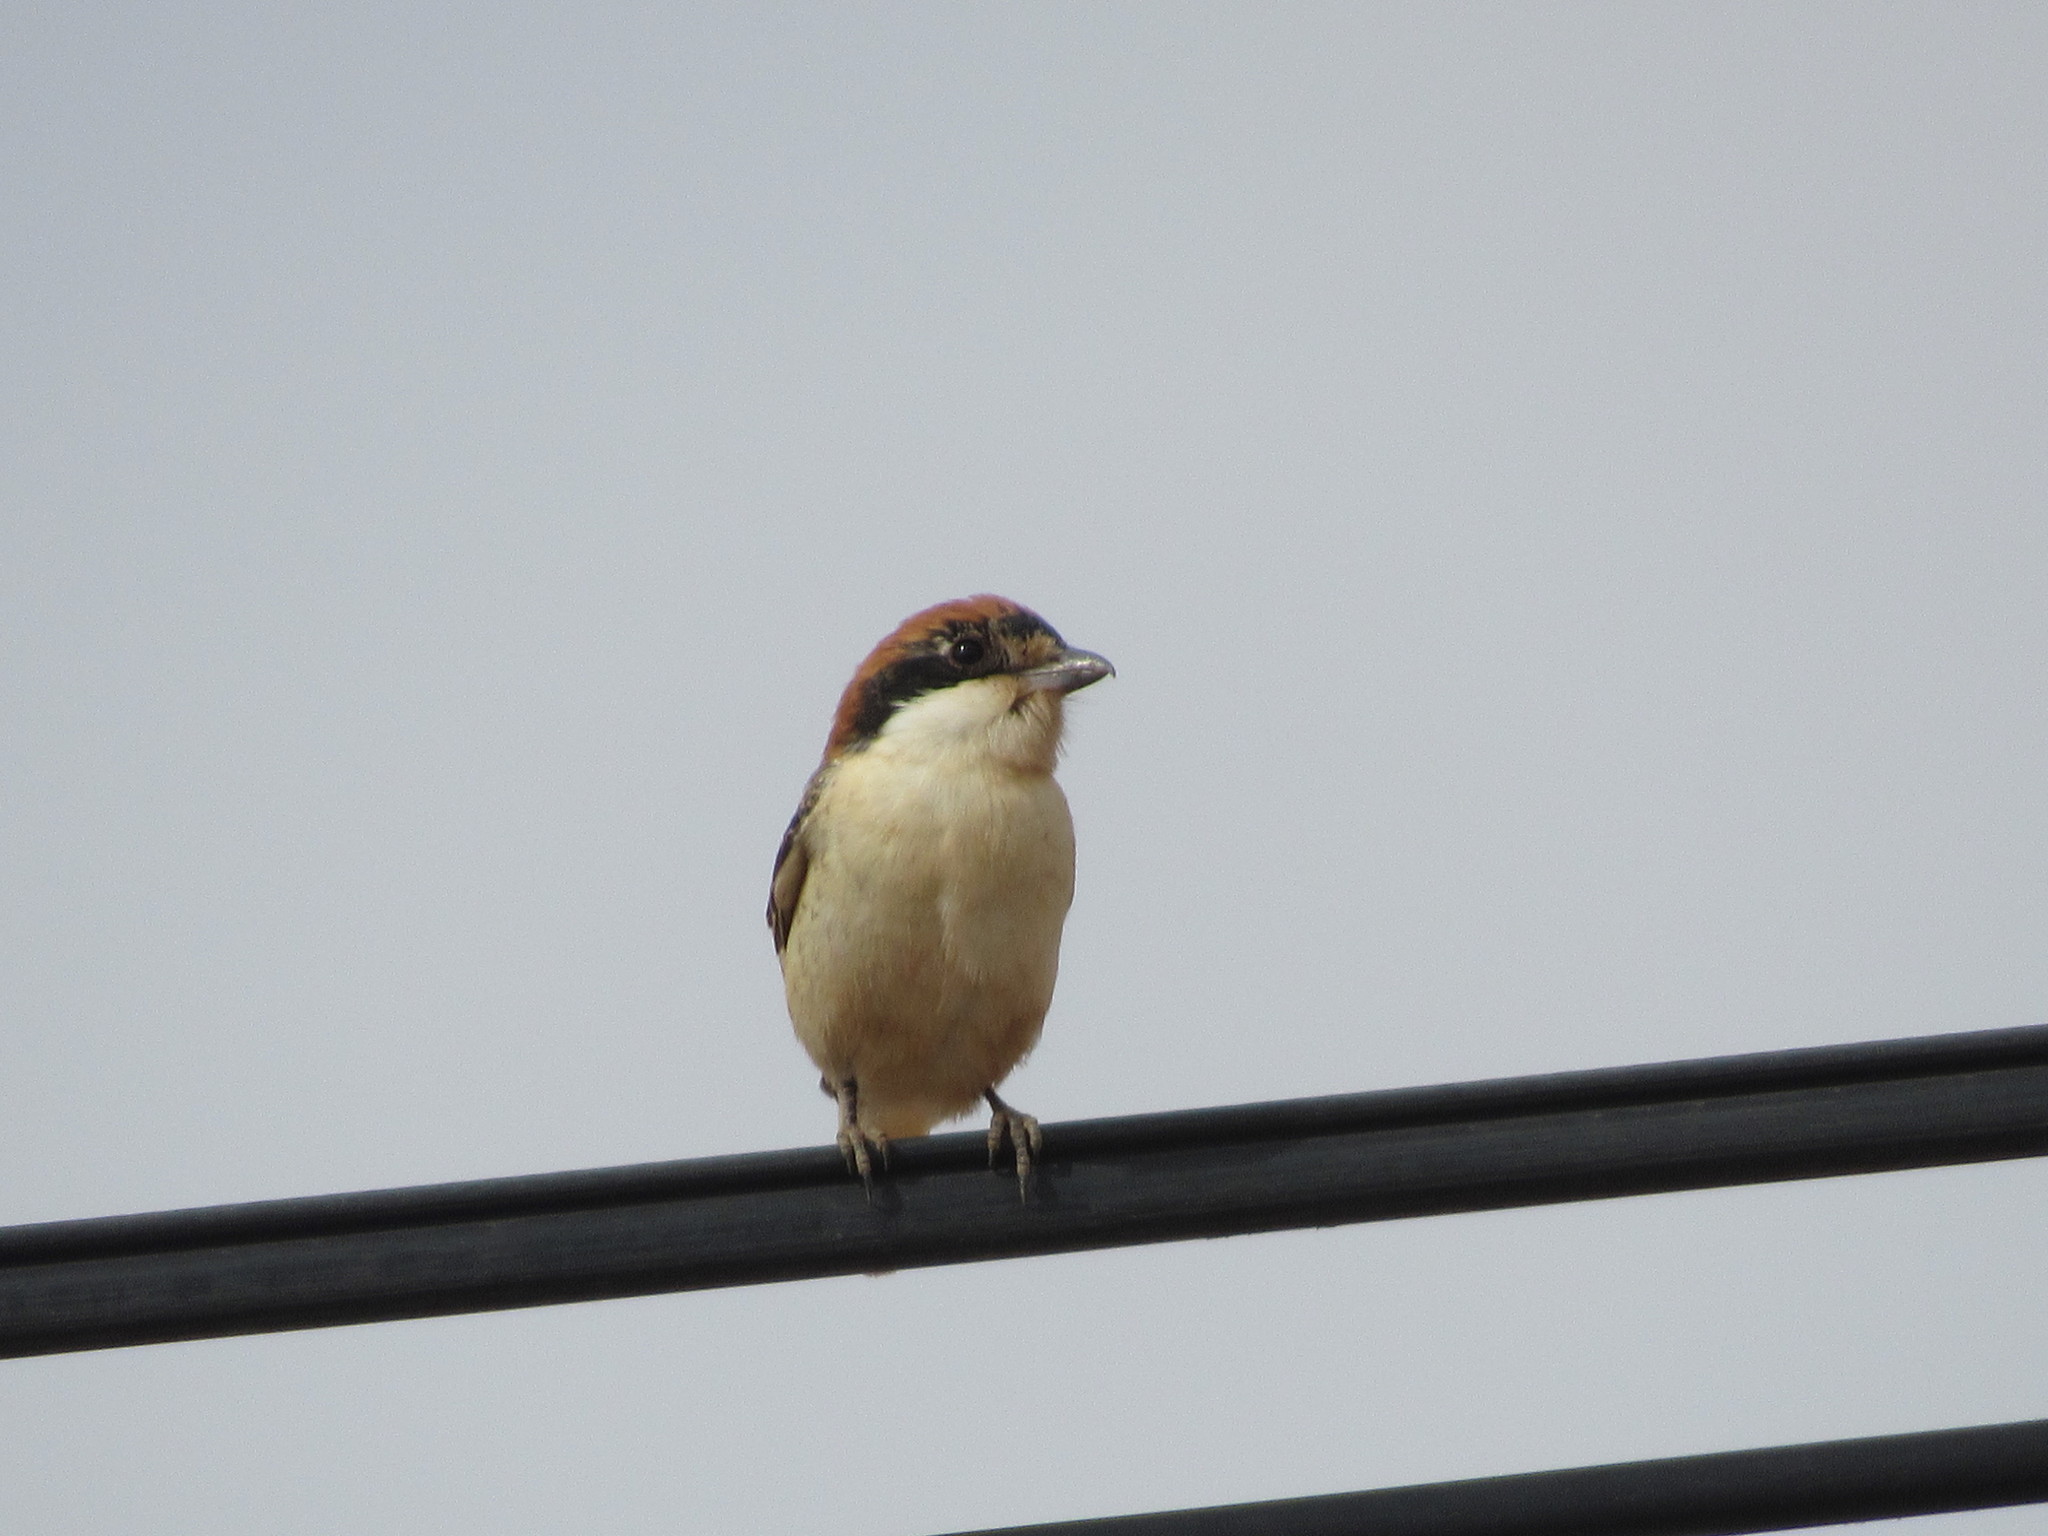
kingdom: Animalia
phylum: Chordata
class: Aves
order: Passeriformes
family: Laniidae
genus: Lanius
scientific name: Lanius senator
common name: Woodchat shrike
